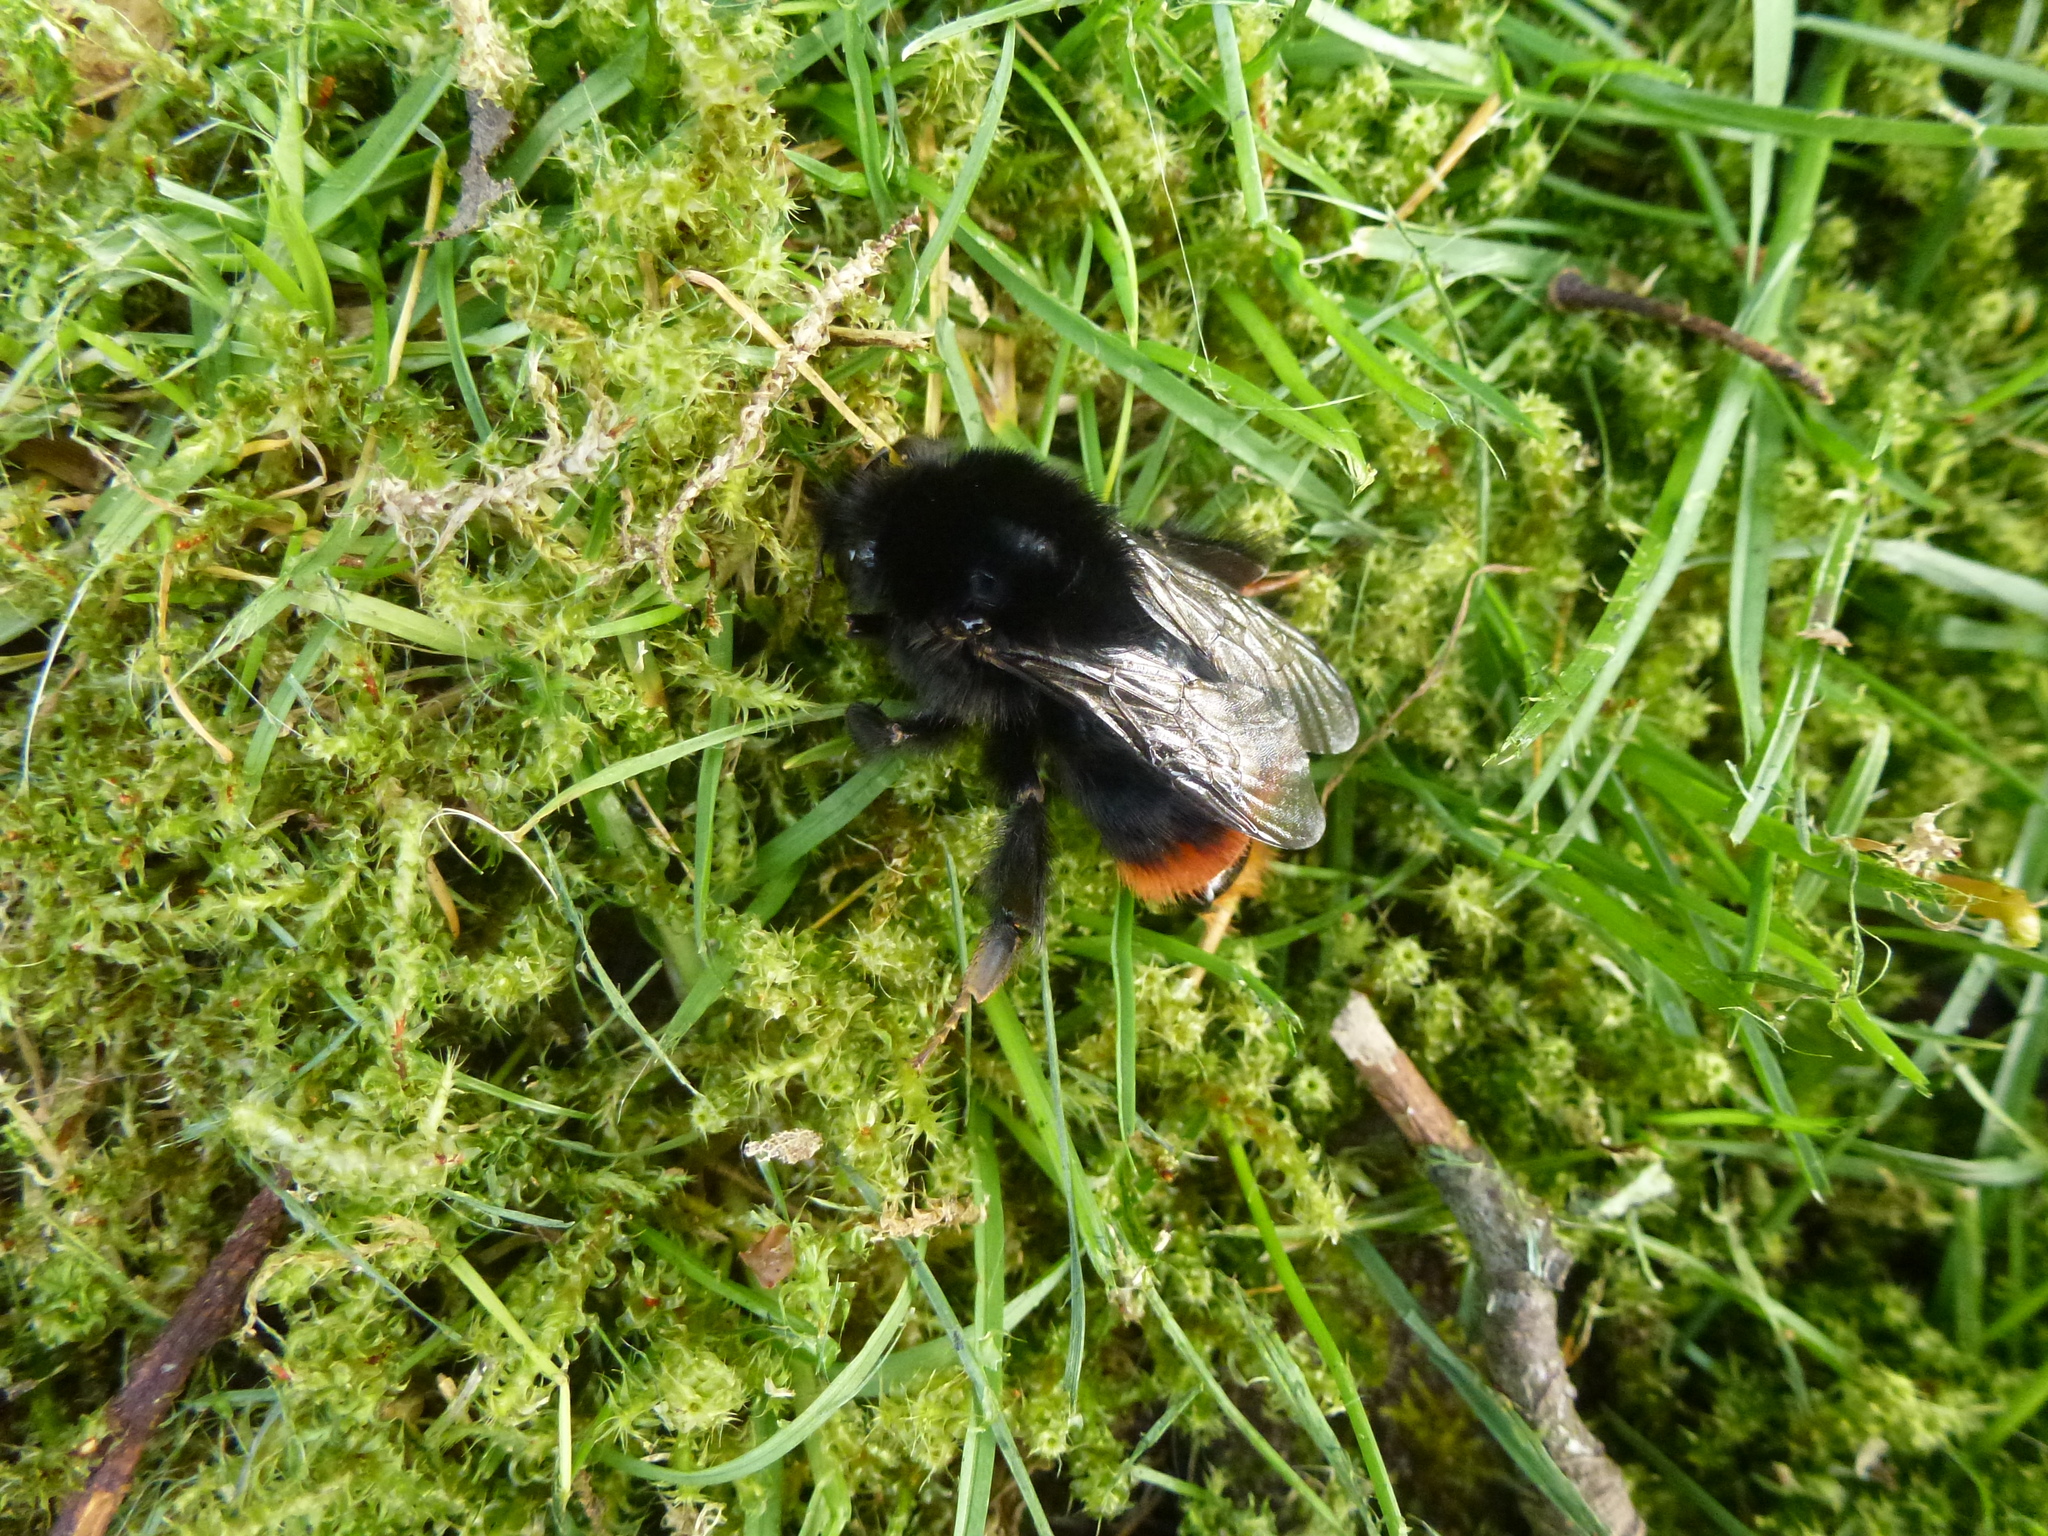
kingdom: Animalia
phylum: Arthropoda
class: Insecta
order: Hymenoptera
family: Apidae
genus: Bombus
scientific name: Bombus lapidarius
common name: Large red-tailed humble-bee
